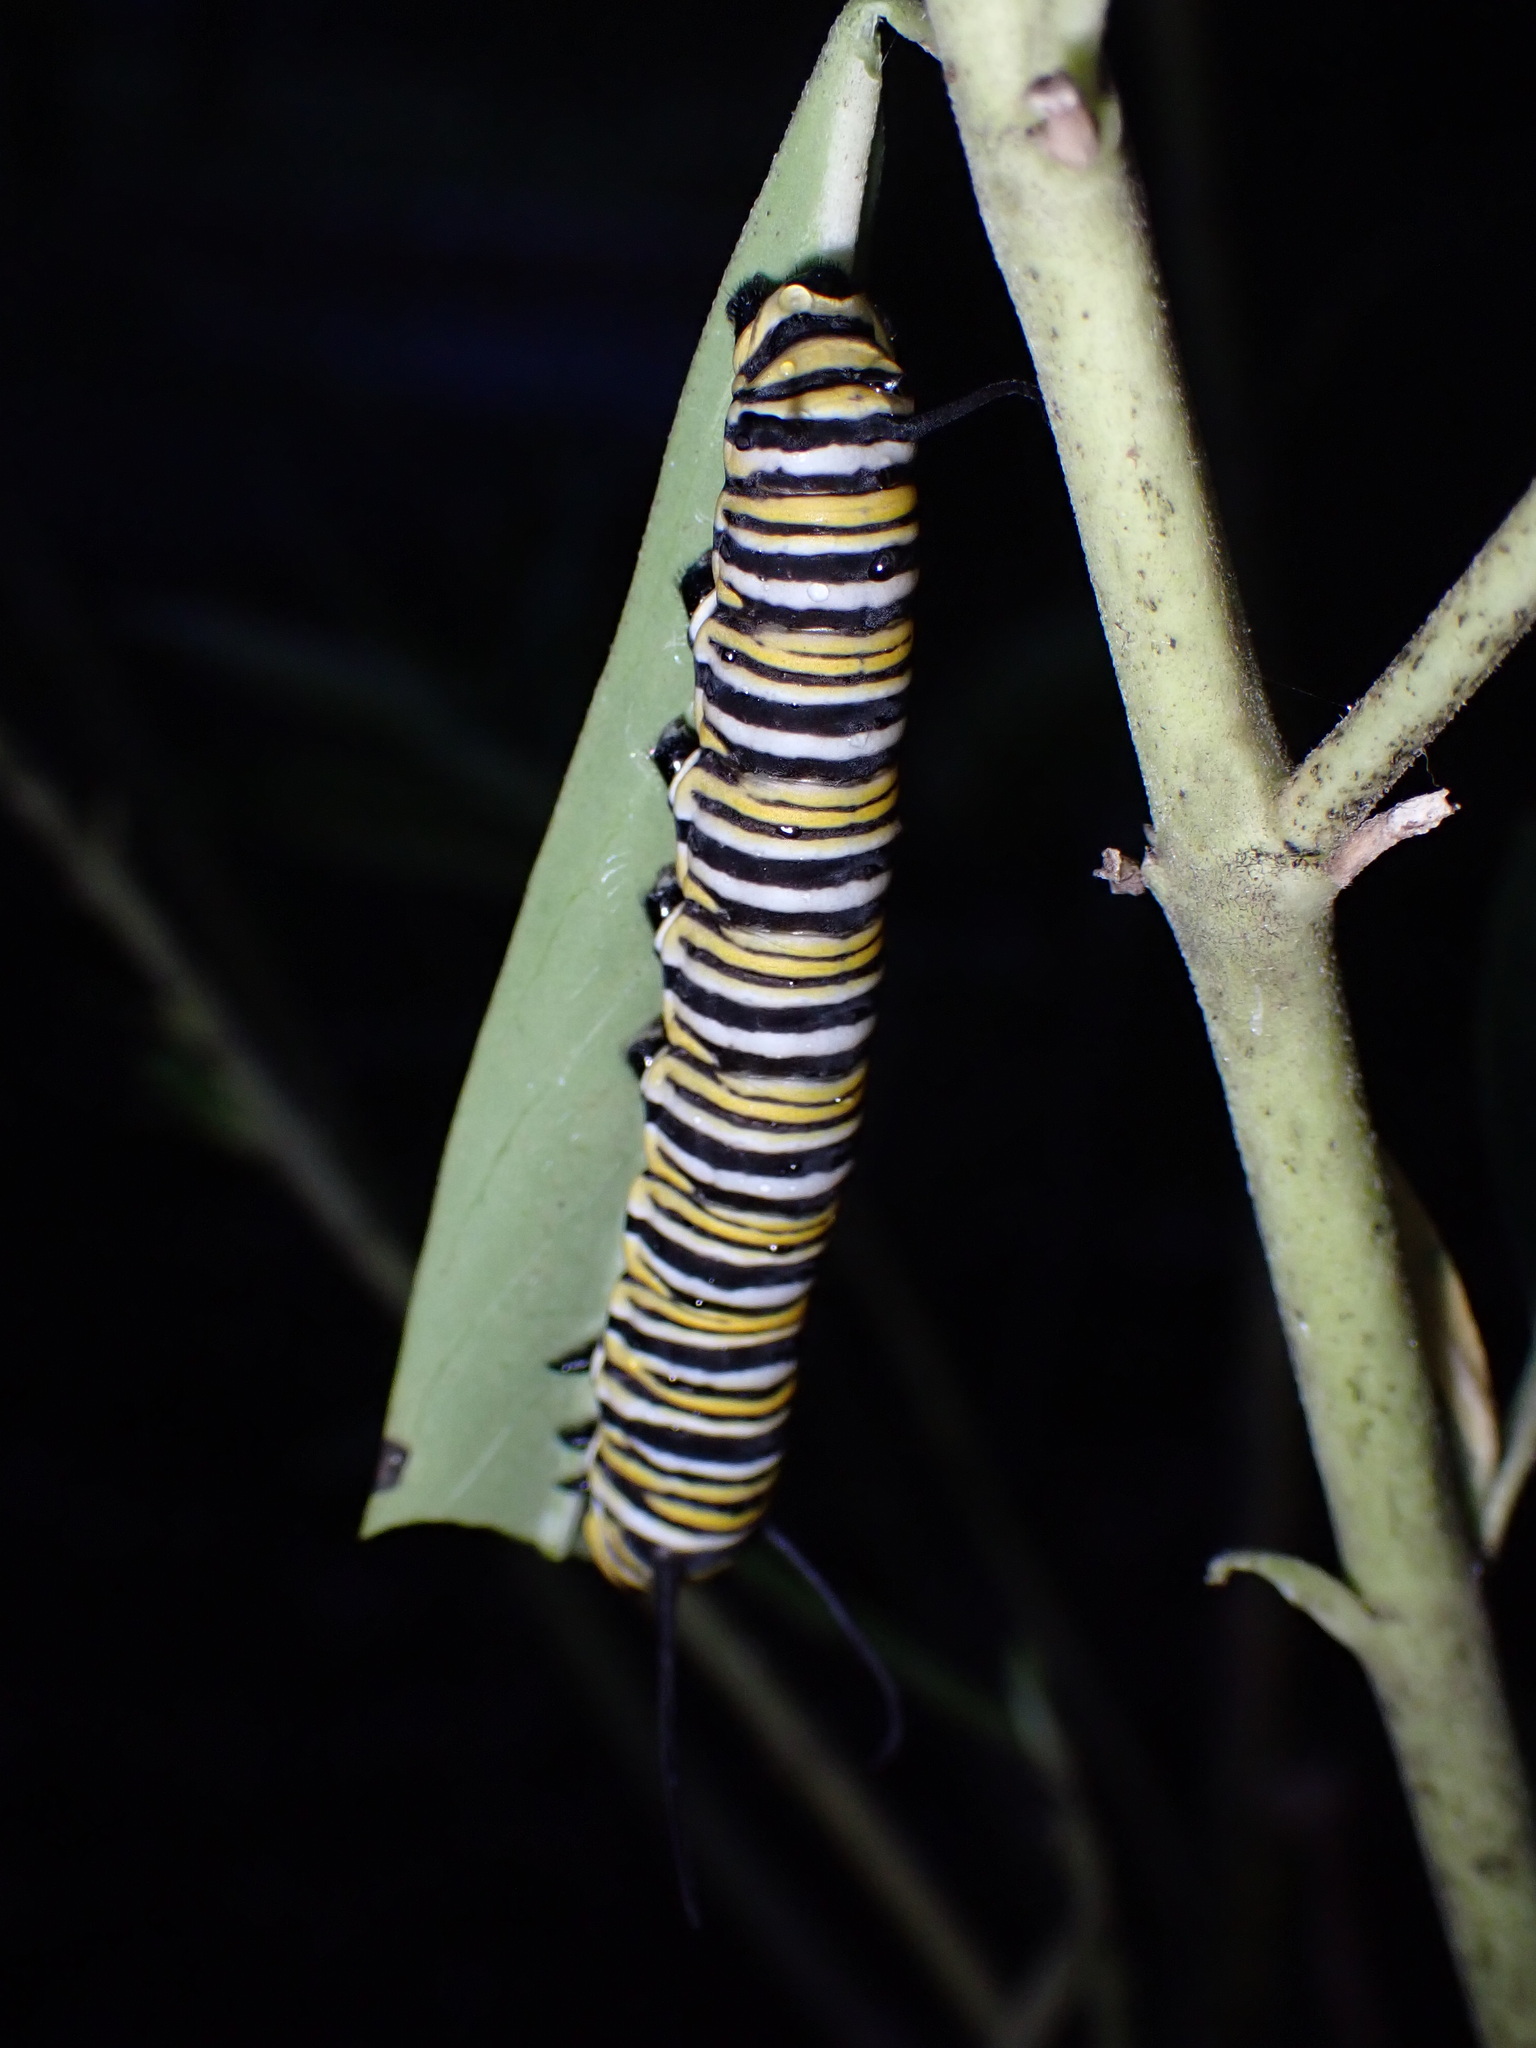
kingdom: Animalia
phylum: Arthropoda
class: Insecta
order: Lepidoptera
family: Nymphalidae
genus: Danaus
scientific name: Danaus plexippus
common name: Monarch
